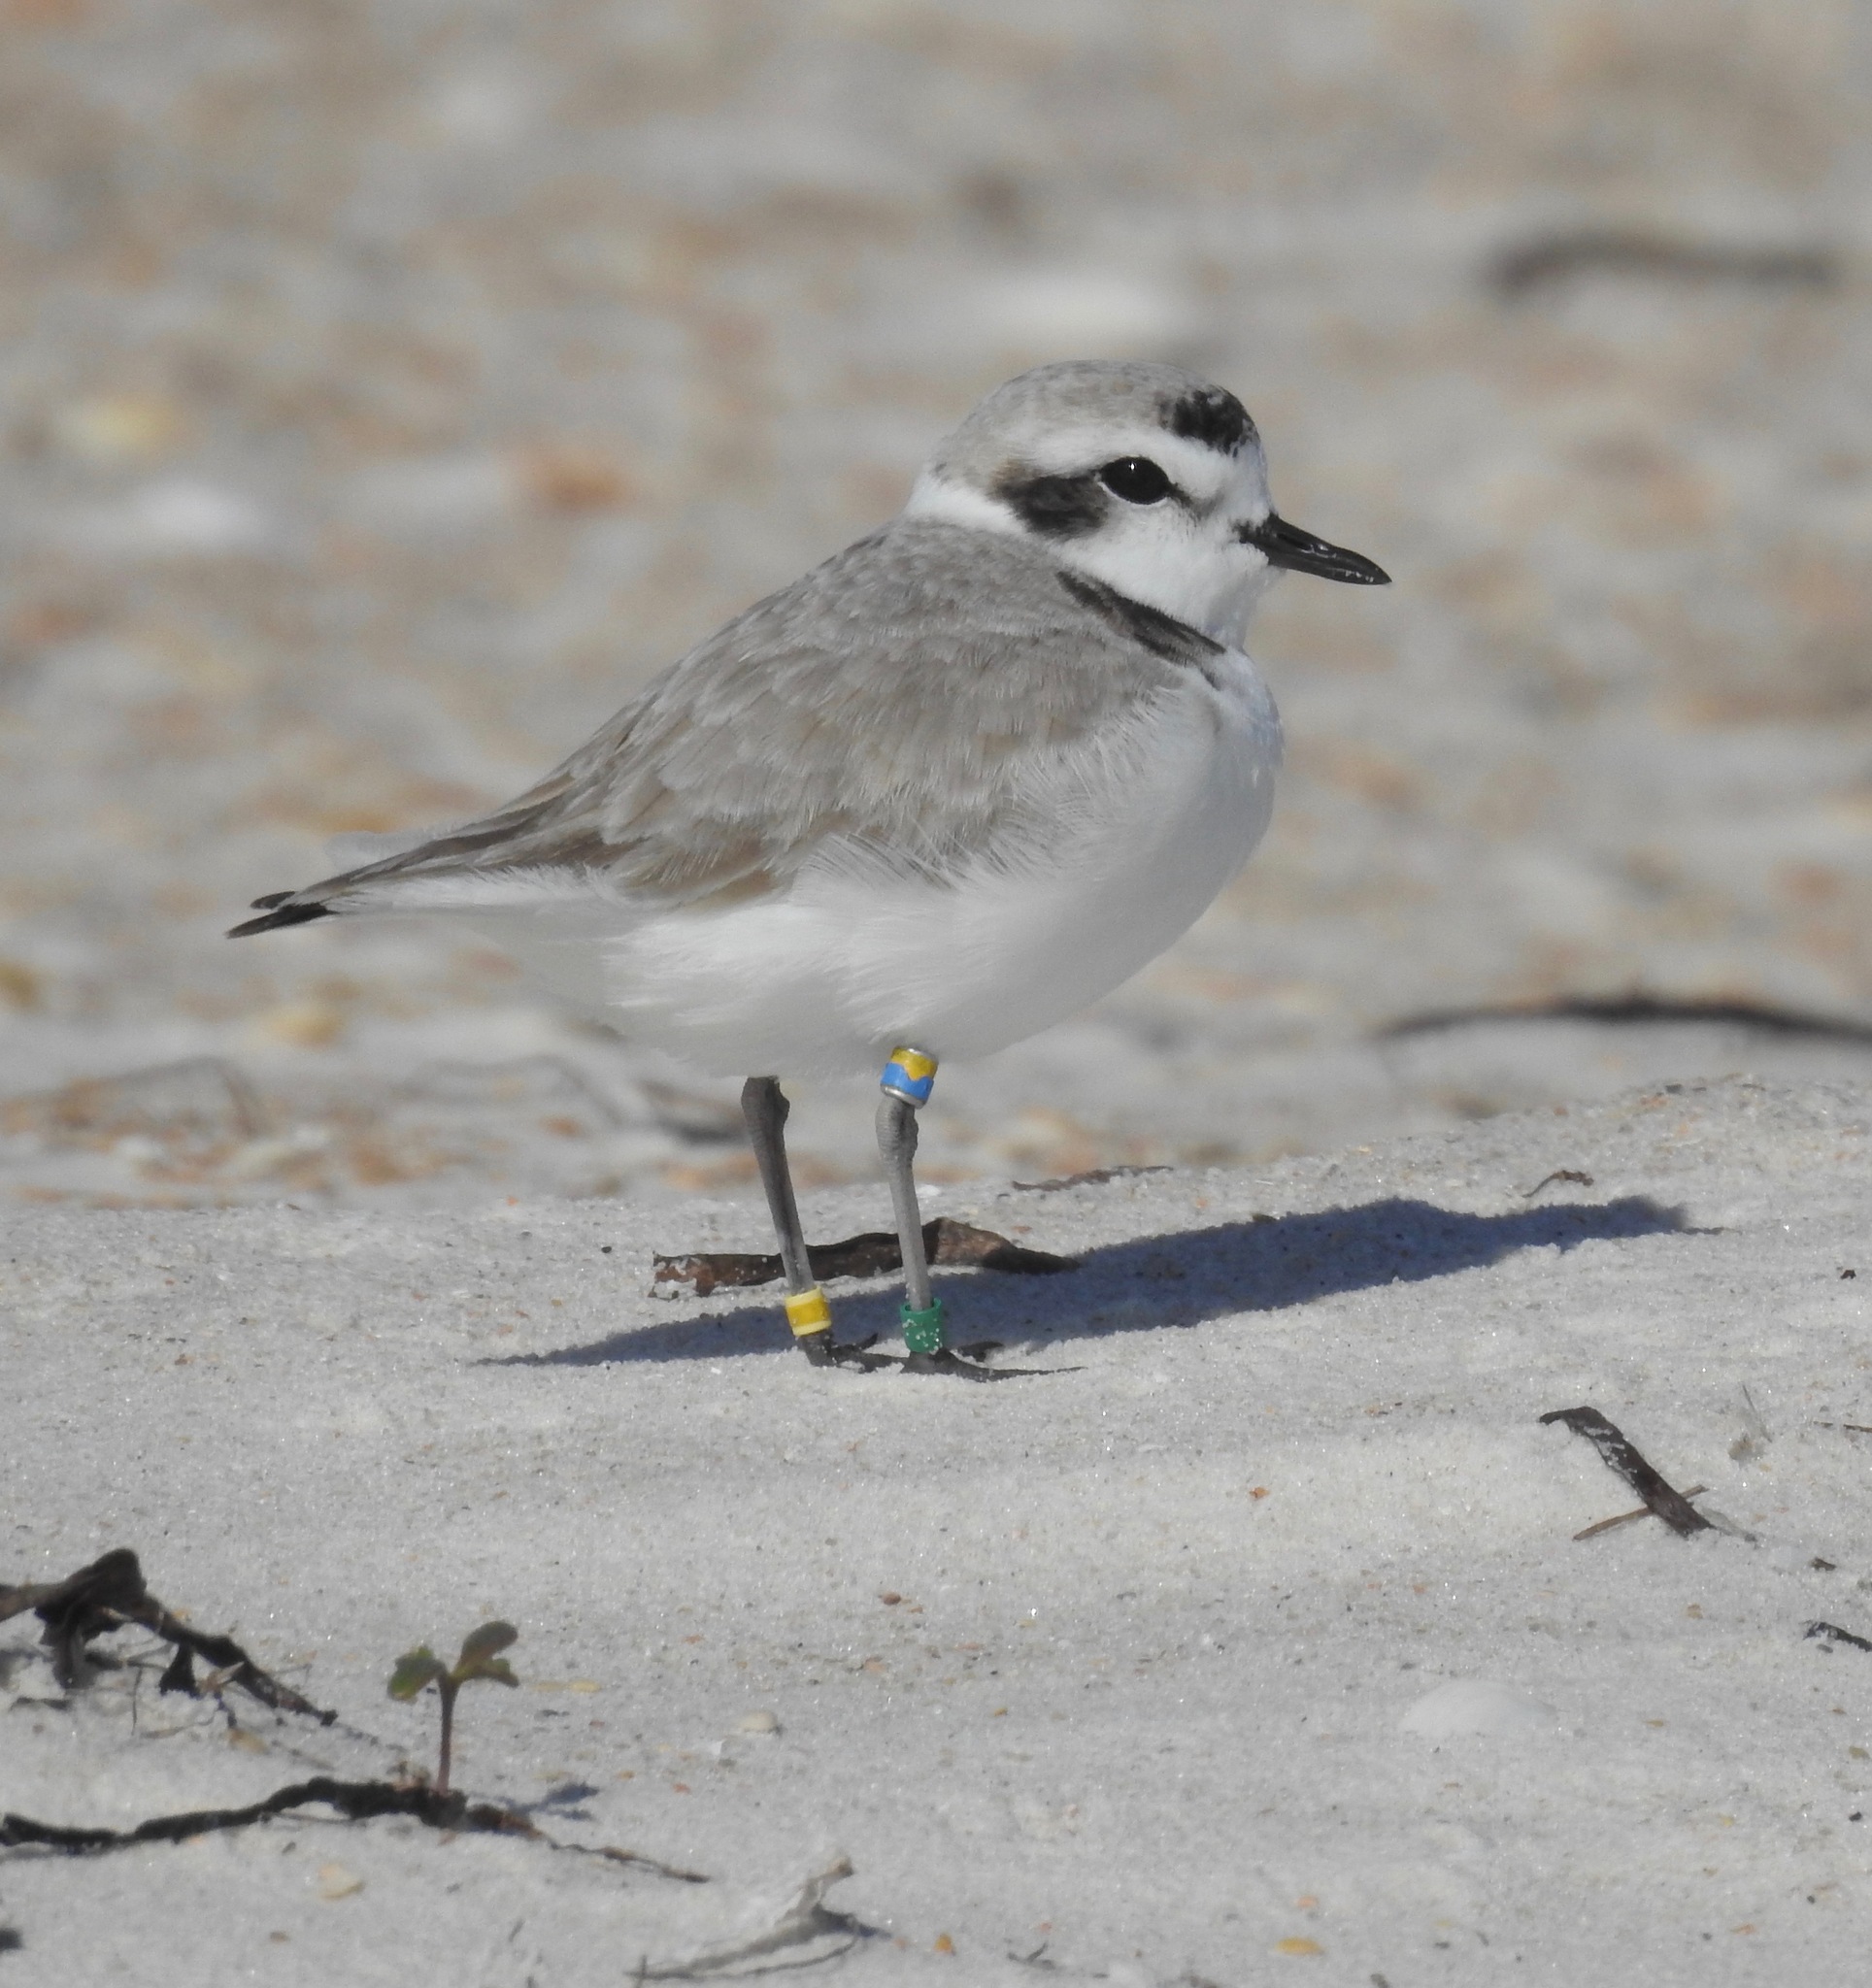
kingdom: Animalia
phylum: Chordata
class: Aves
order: Charadriiformes
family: Charadriidae
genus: Anarhynchus
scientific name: Anarhynchus
